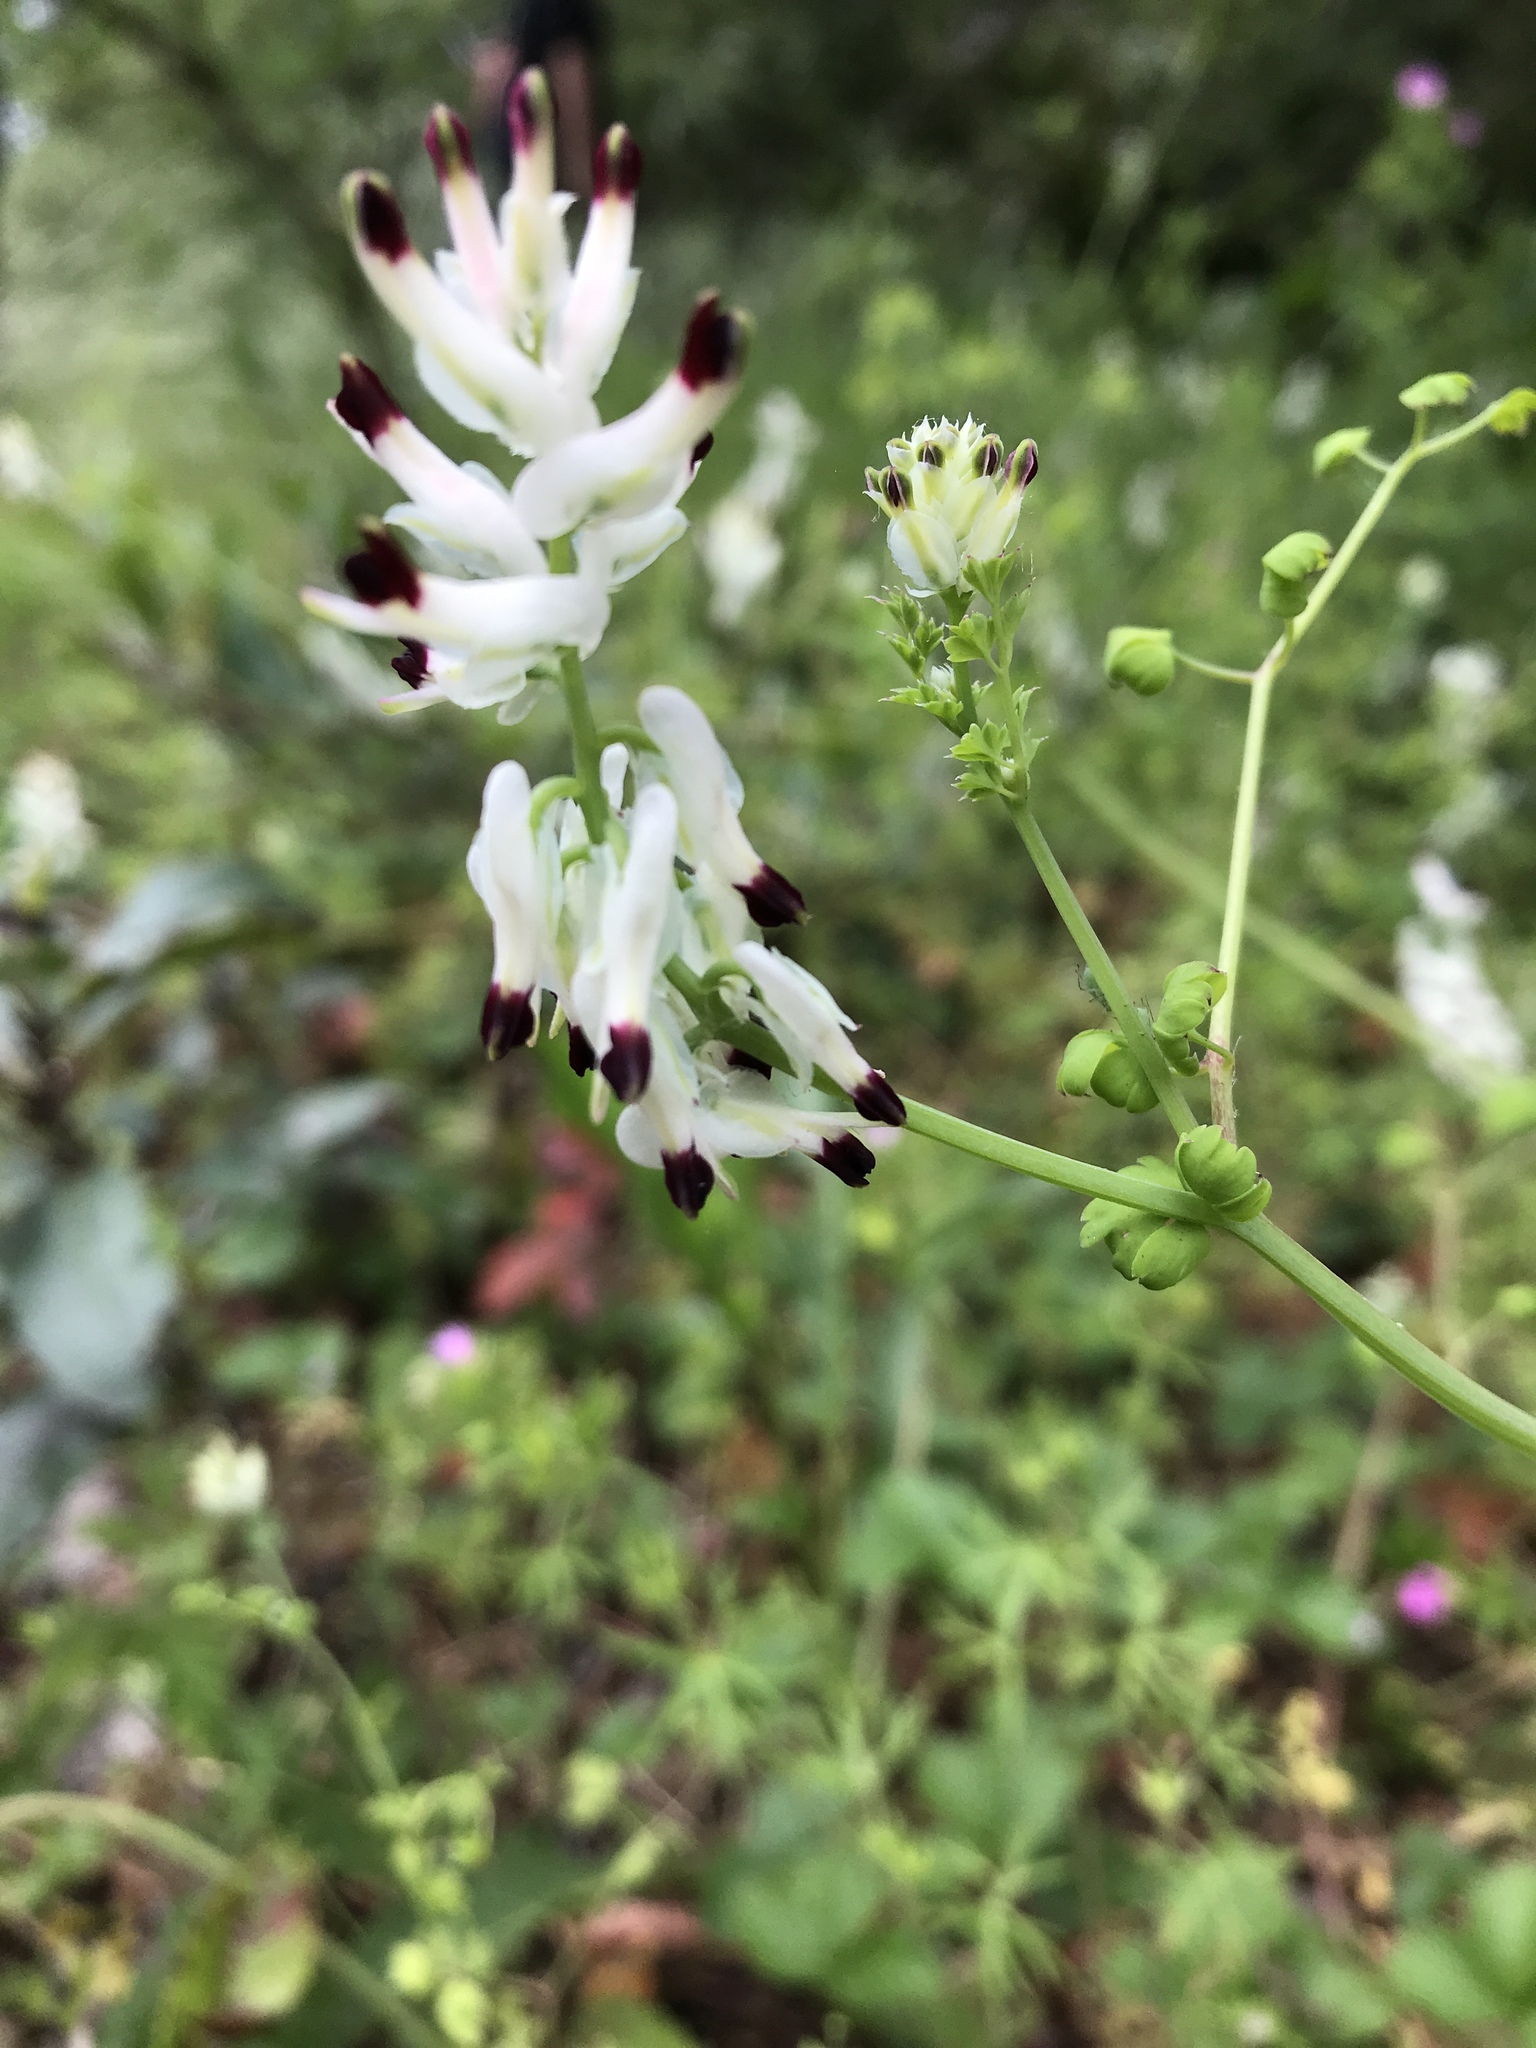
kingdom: Plantae
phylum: Tracheophyta
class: Magnoliopsida
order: Ranunculales
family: Papaveraceae
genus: Fumaria
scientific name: Fumaria capreolata
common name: White ramping-fumitory
